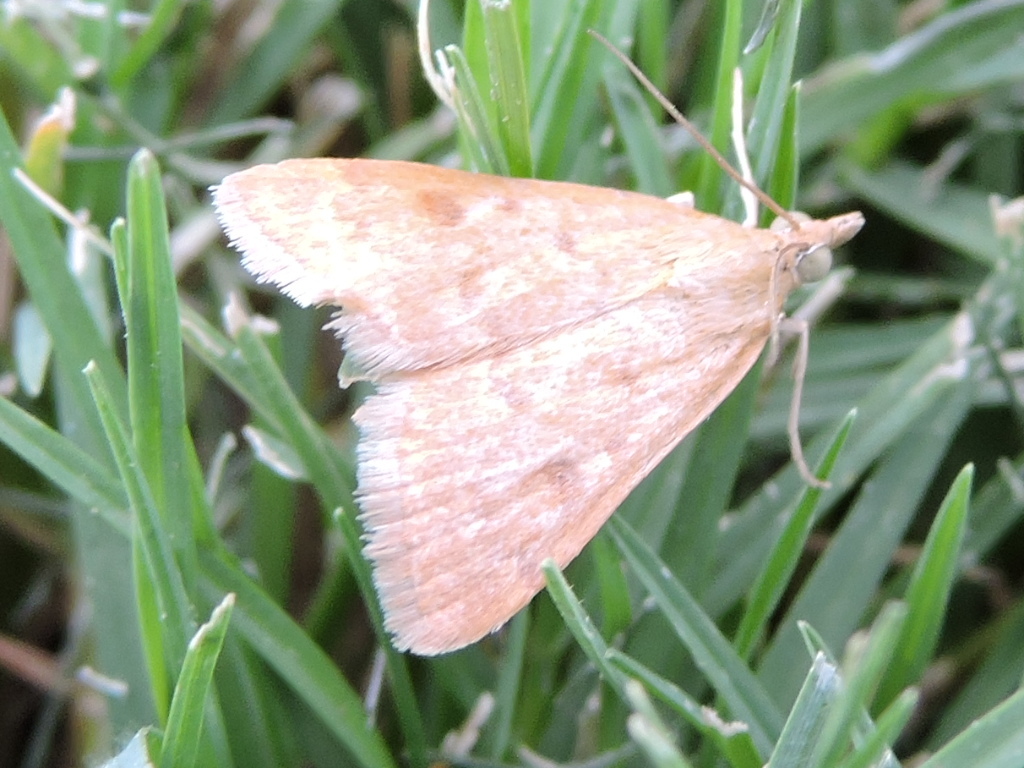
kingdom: Animalia
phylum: Arthropoda
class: Insecta
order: Lepidoptera
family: Crambidae
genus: Achyra
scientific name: Achyra rantalis
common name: Garden webworm
